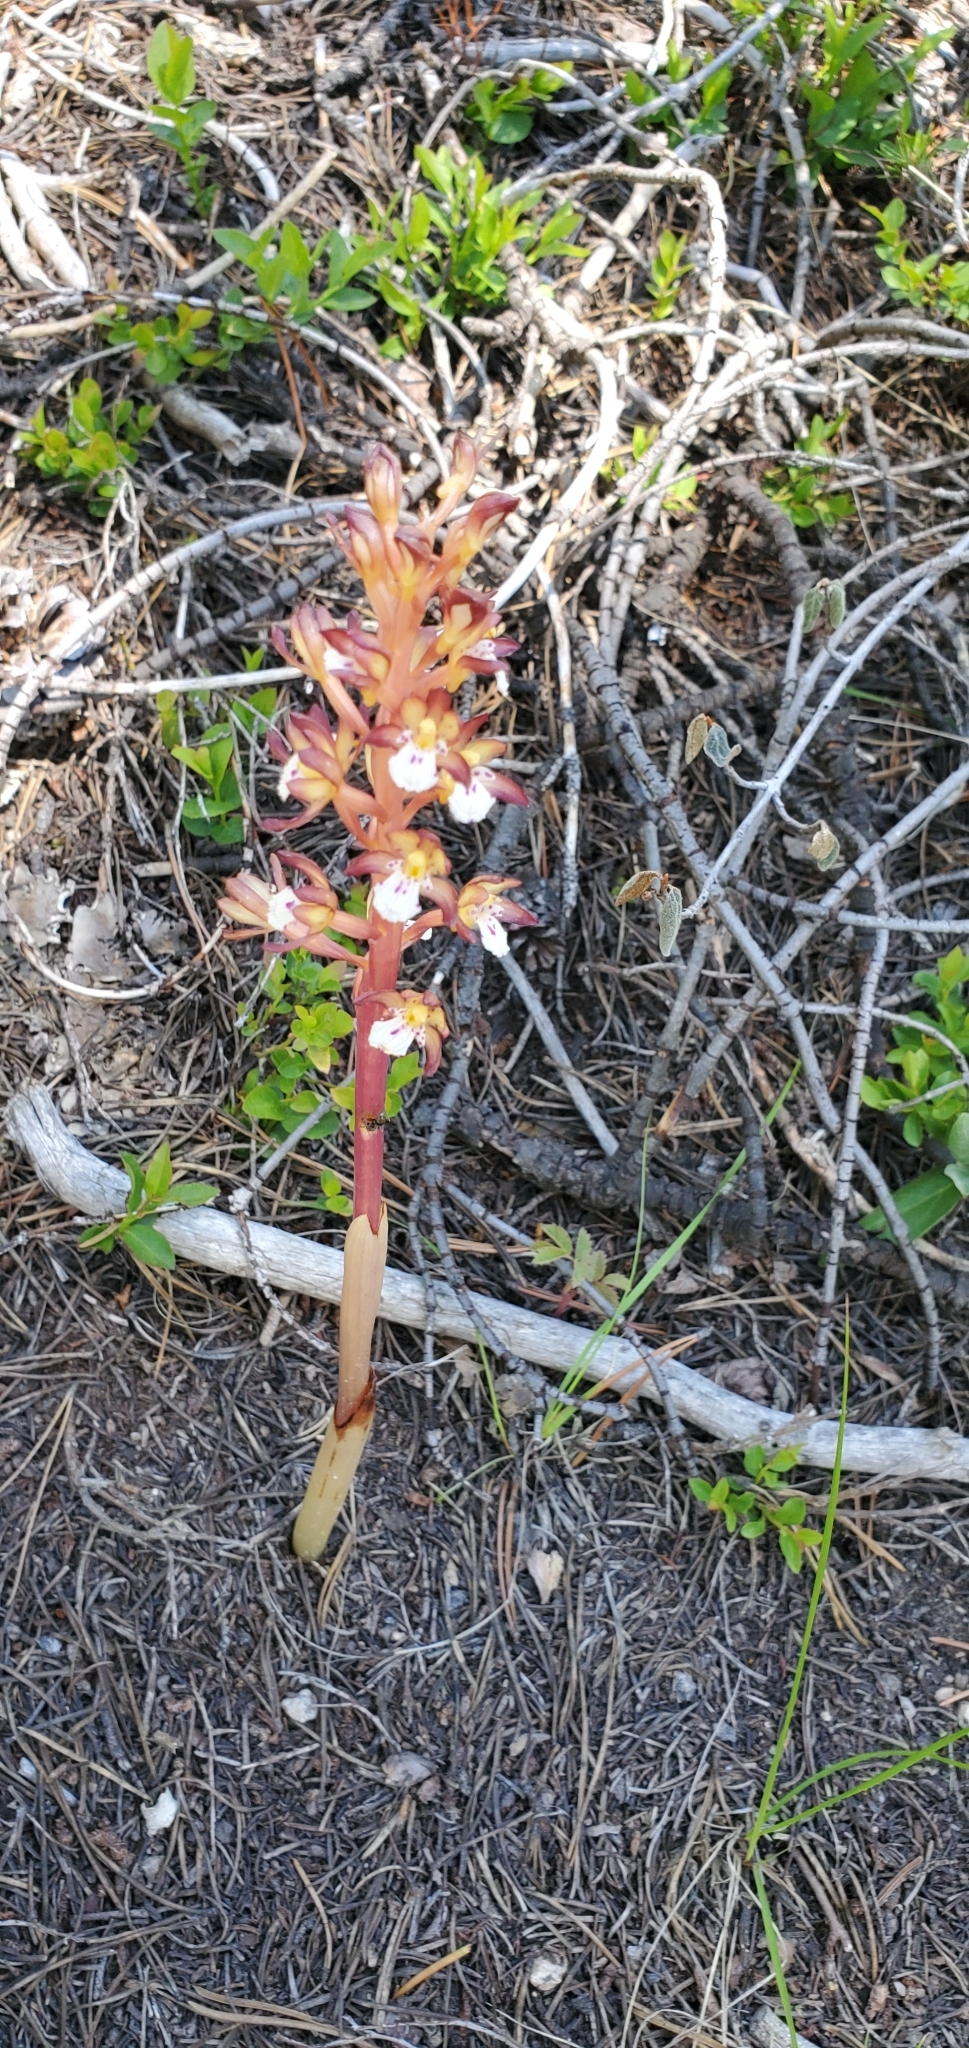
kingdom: Plantae
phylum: Tracheophyta
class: Liliopsida
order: Asparagales
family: Orchidaceae
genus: Corallorhiza
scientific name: Corallorhiza maculata
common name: Spotted coralroot
